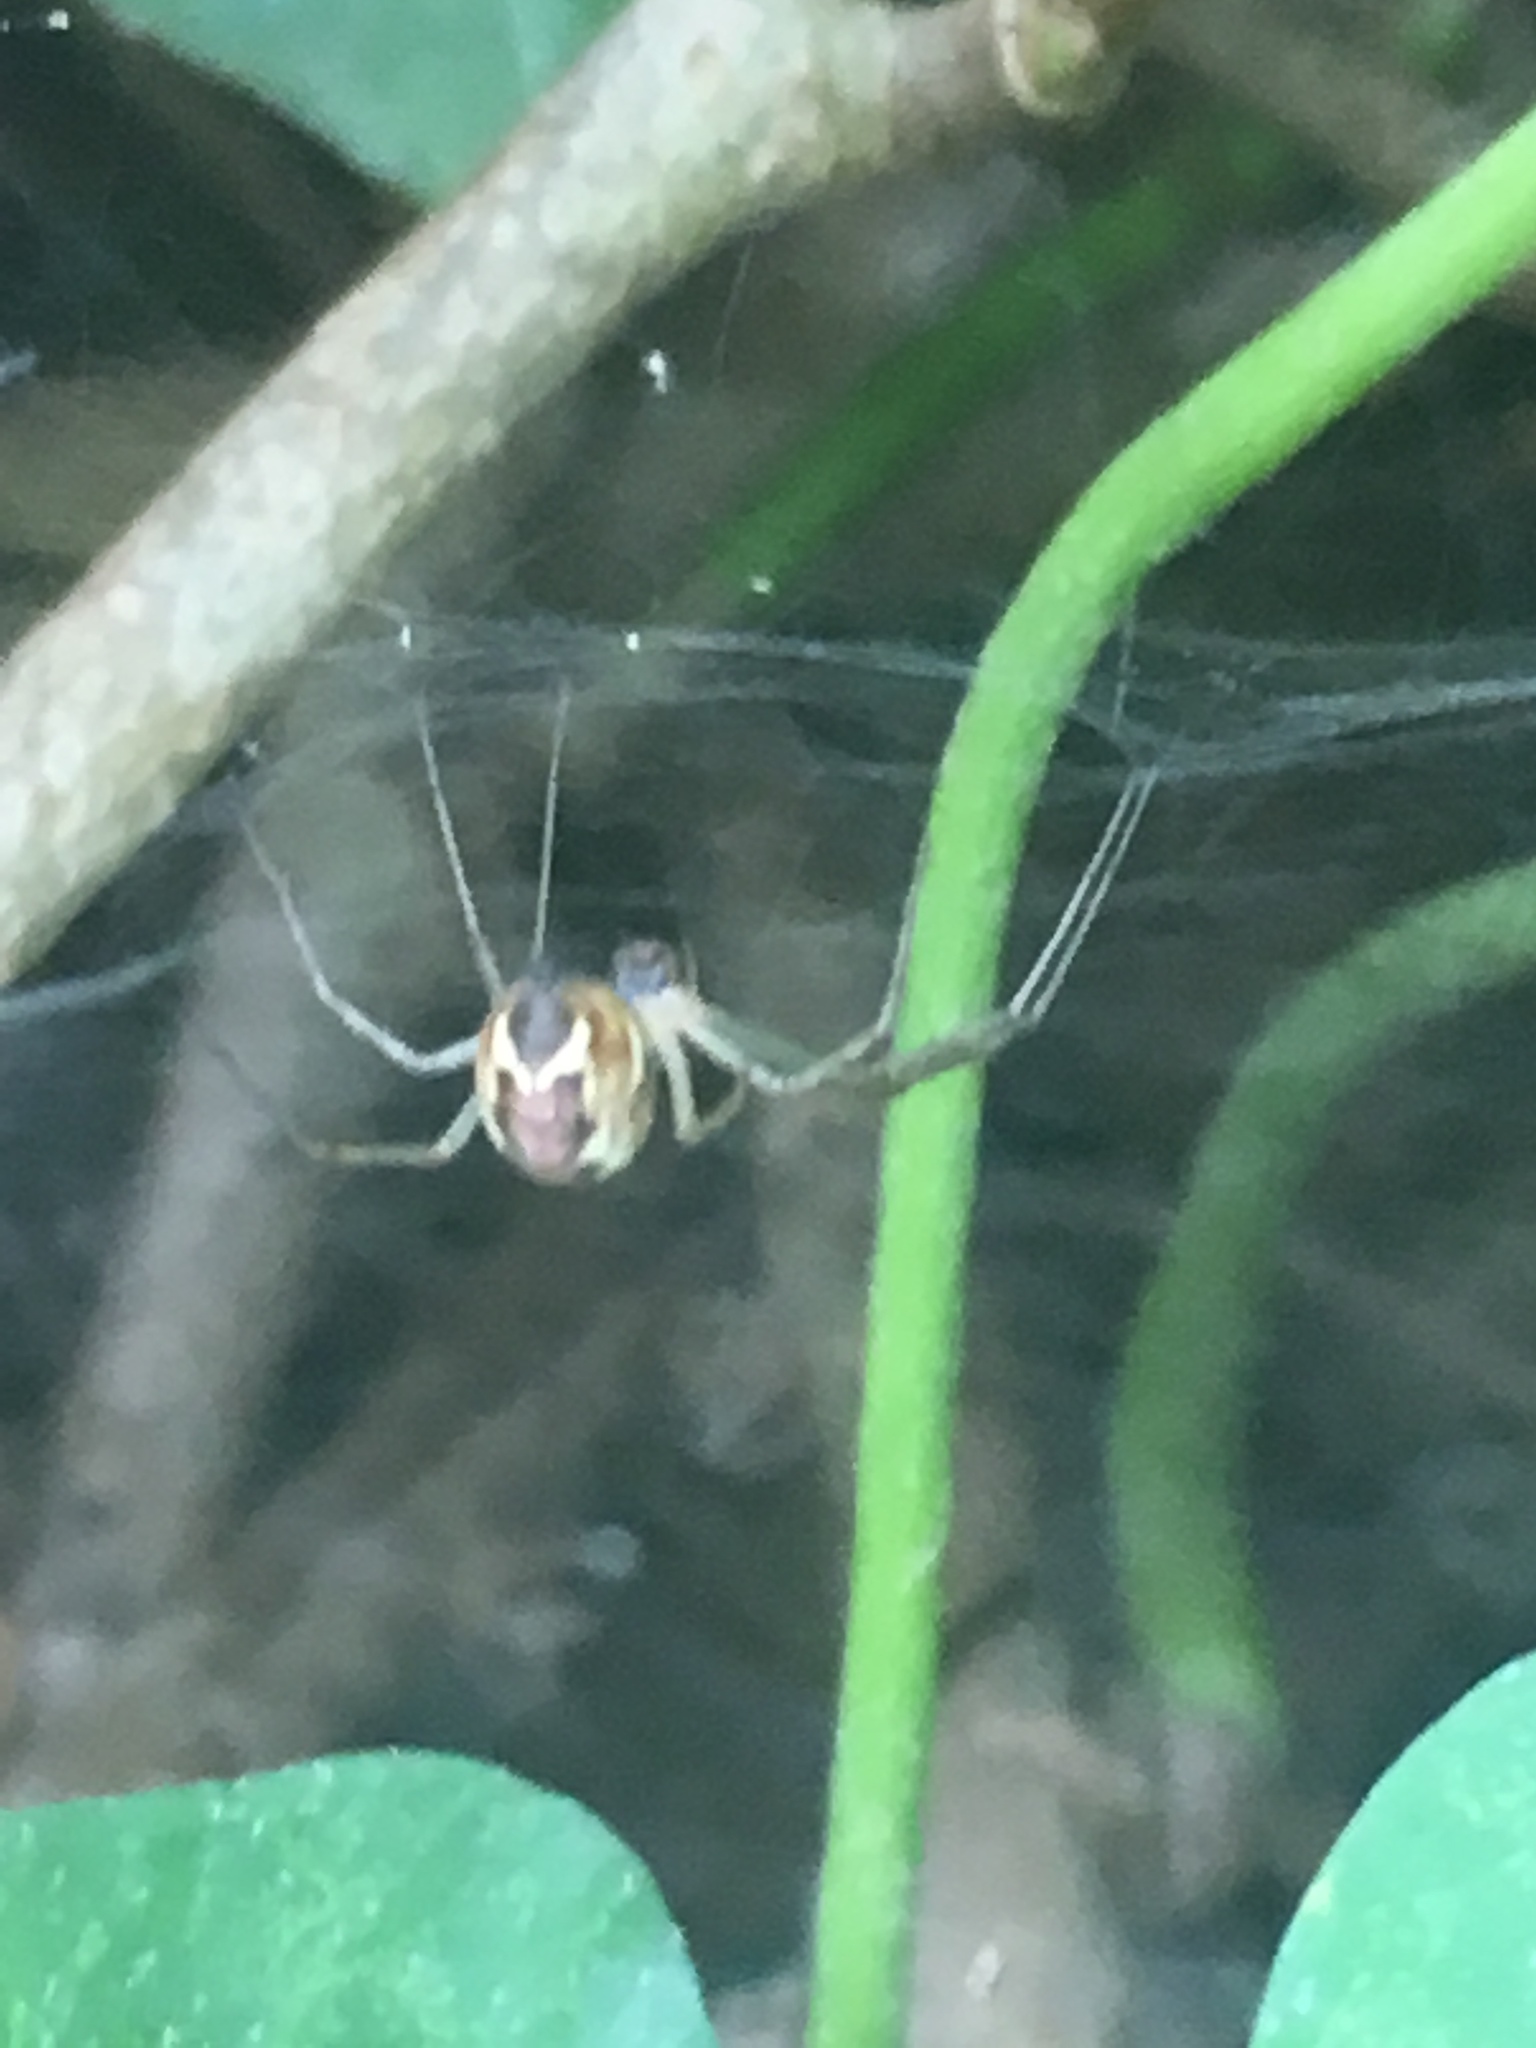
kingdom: Animalia
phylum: Arthropoda
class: Arachnida
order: Araneae
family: Linyphiidae
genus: Linyphia
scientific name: Linyphia triangularis
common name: Money spider
